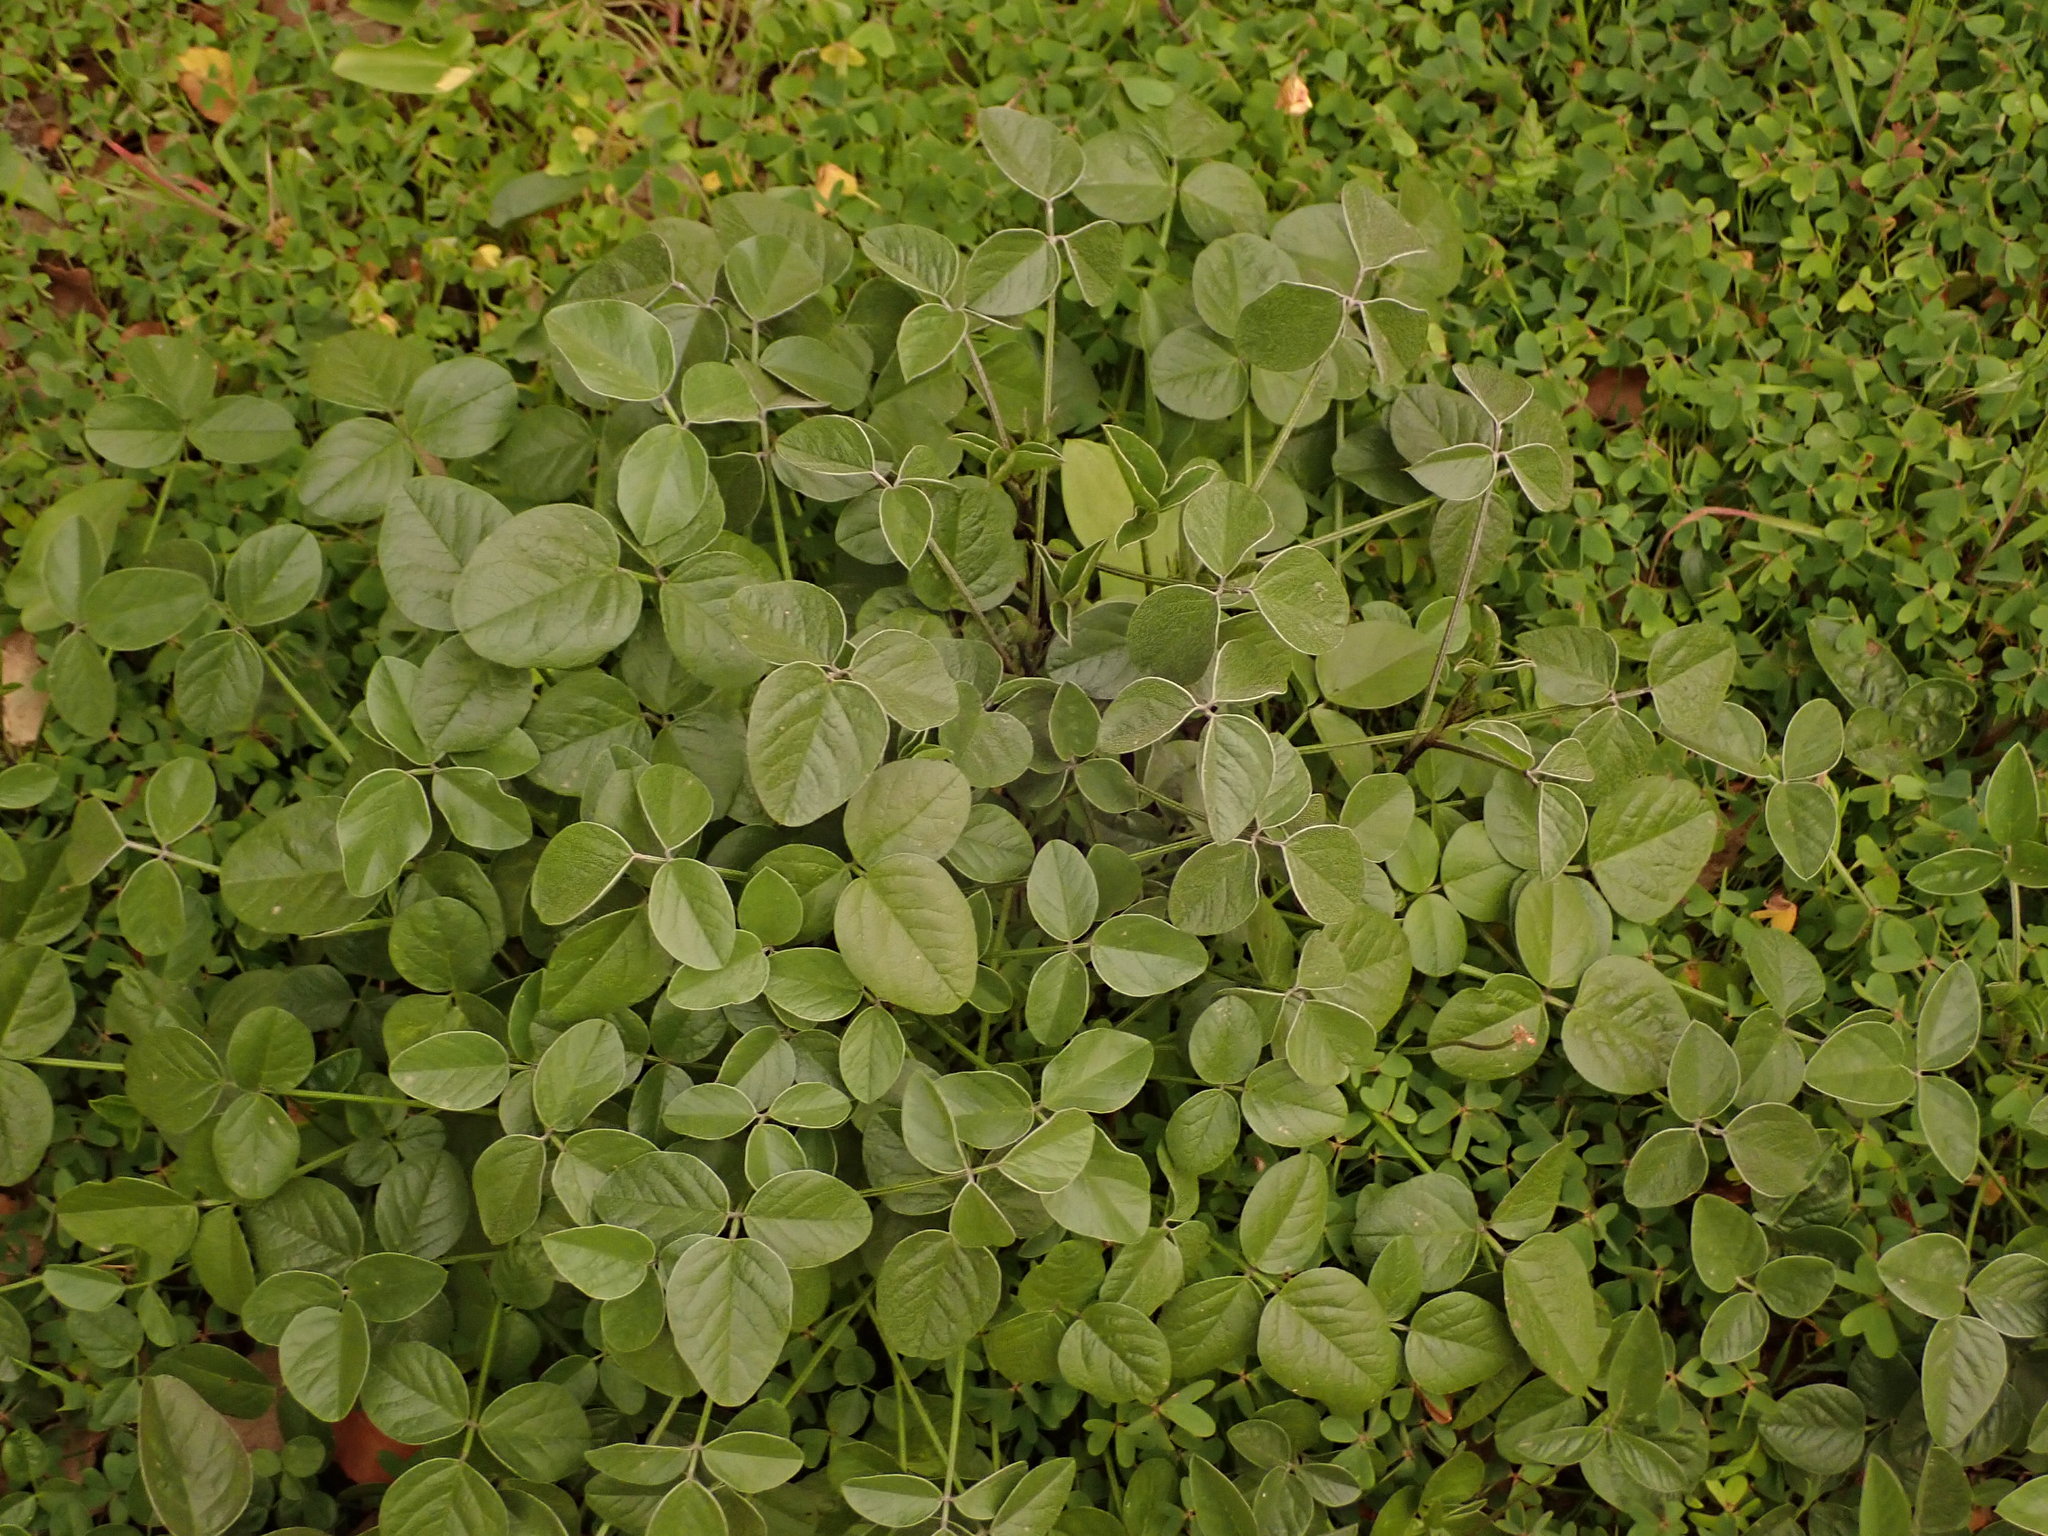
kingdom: Plantae
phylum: Tracheophyta
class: Magnoliopsida
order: Fabales
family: Fabaceae
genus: Bituminaria
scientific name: Bituminaria bituminosa
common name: Arabian pea
